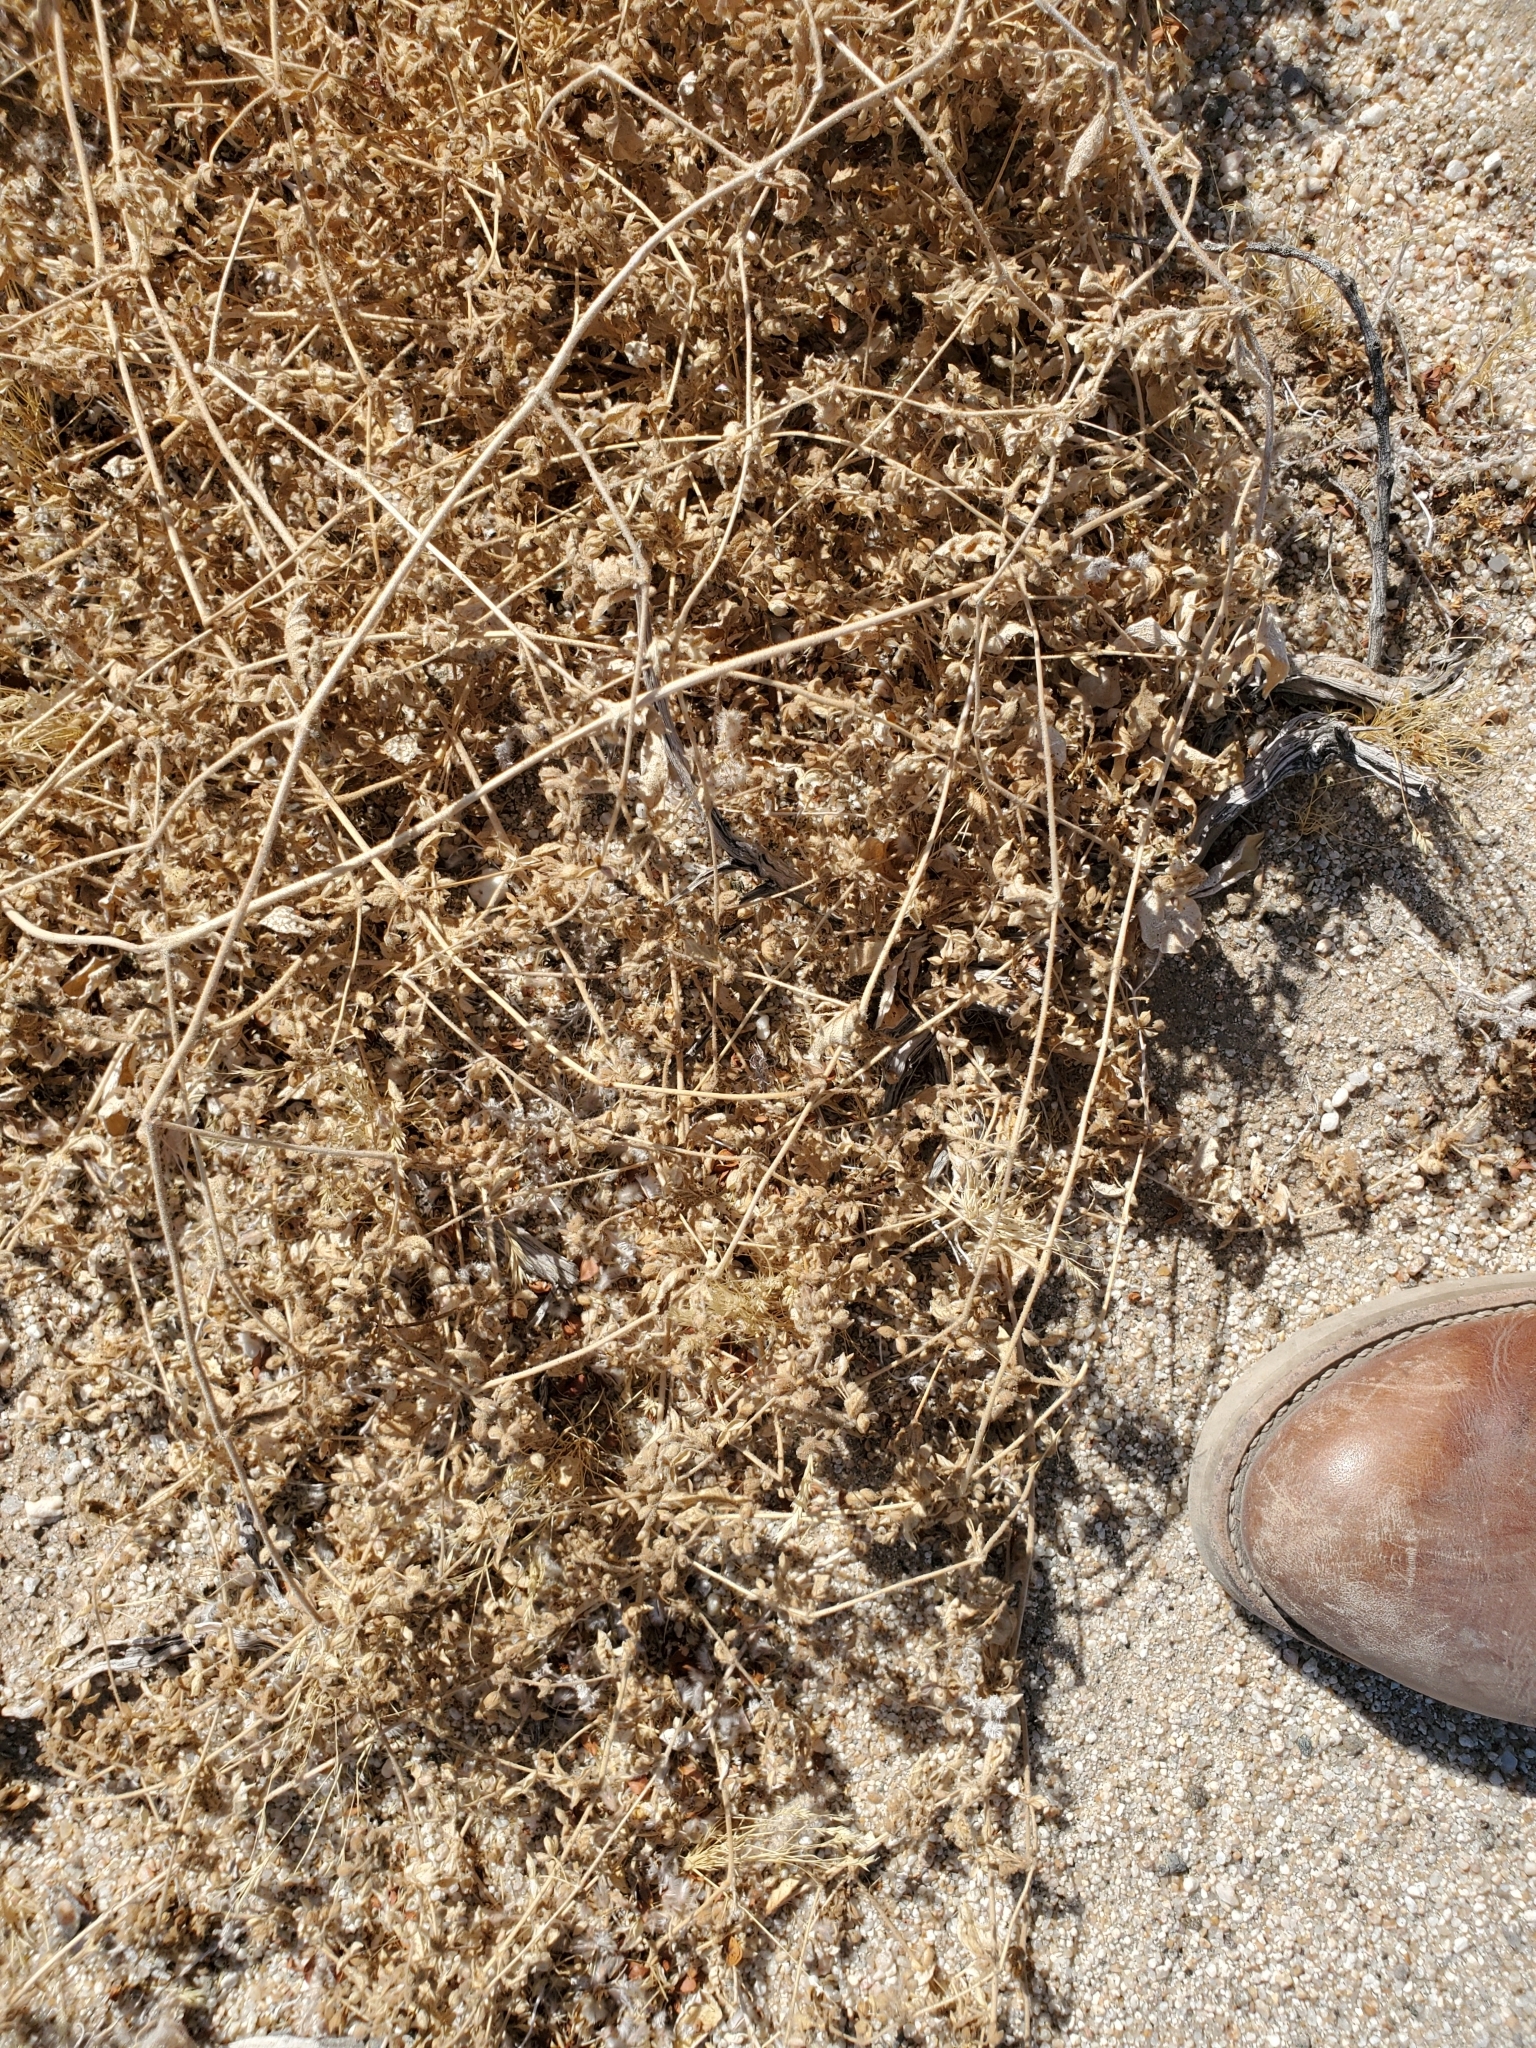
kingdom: Plantae
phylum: Tracheophyta
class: Magnoliopsida
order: Caryophyllales
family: Nyctaginaceae
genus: Allionia
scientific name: Allionia incarnata
